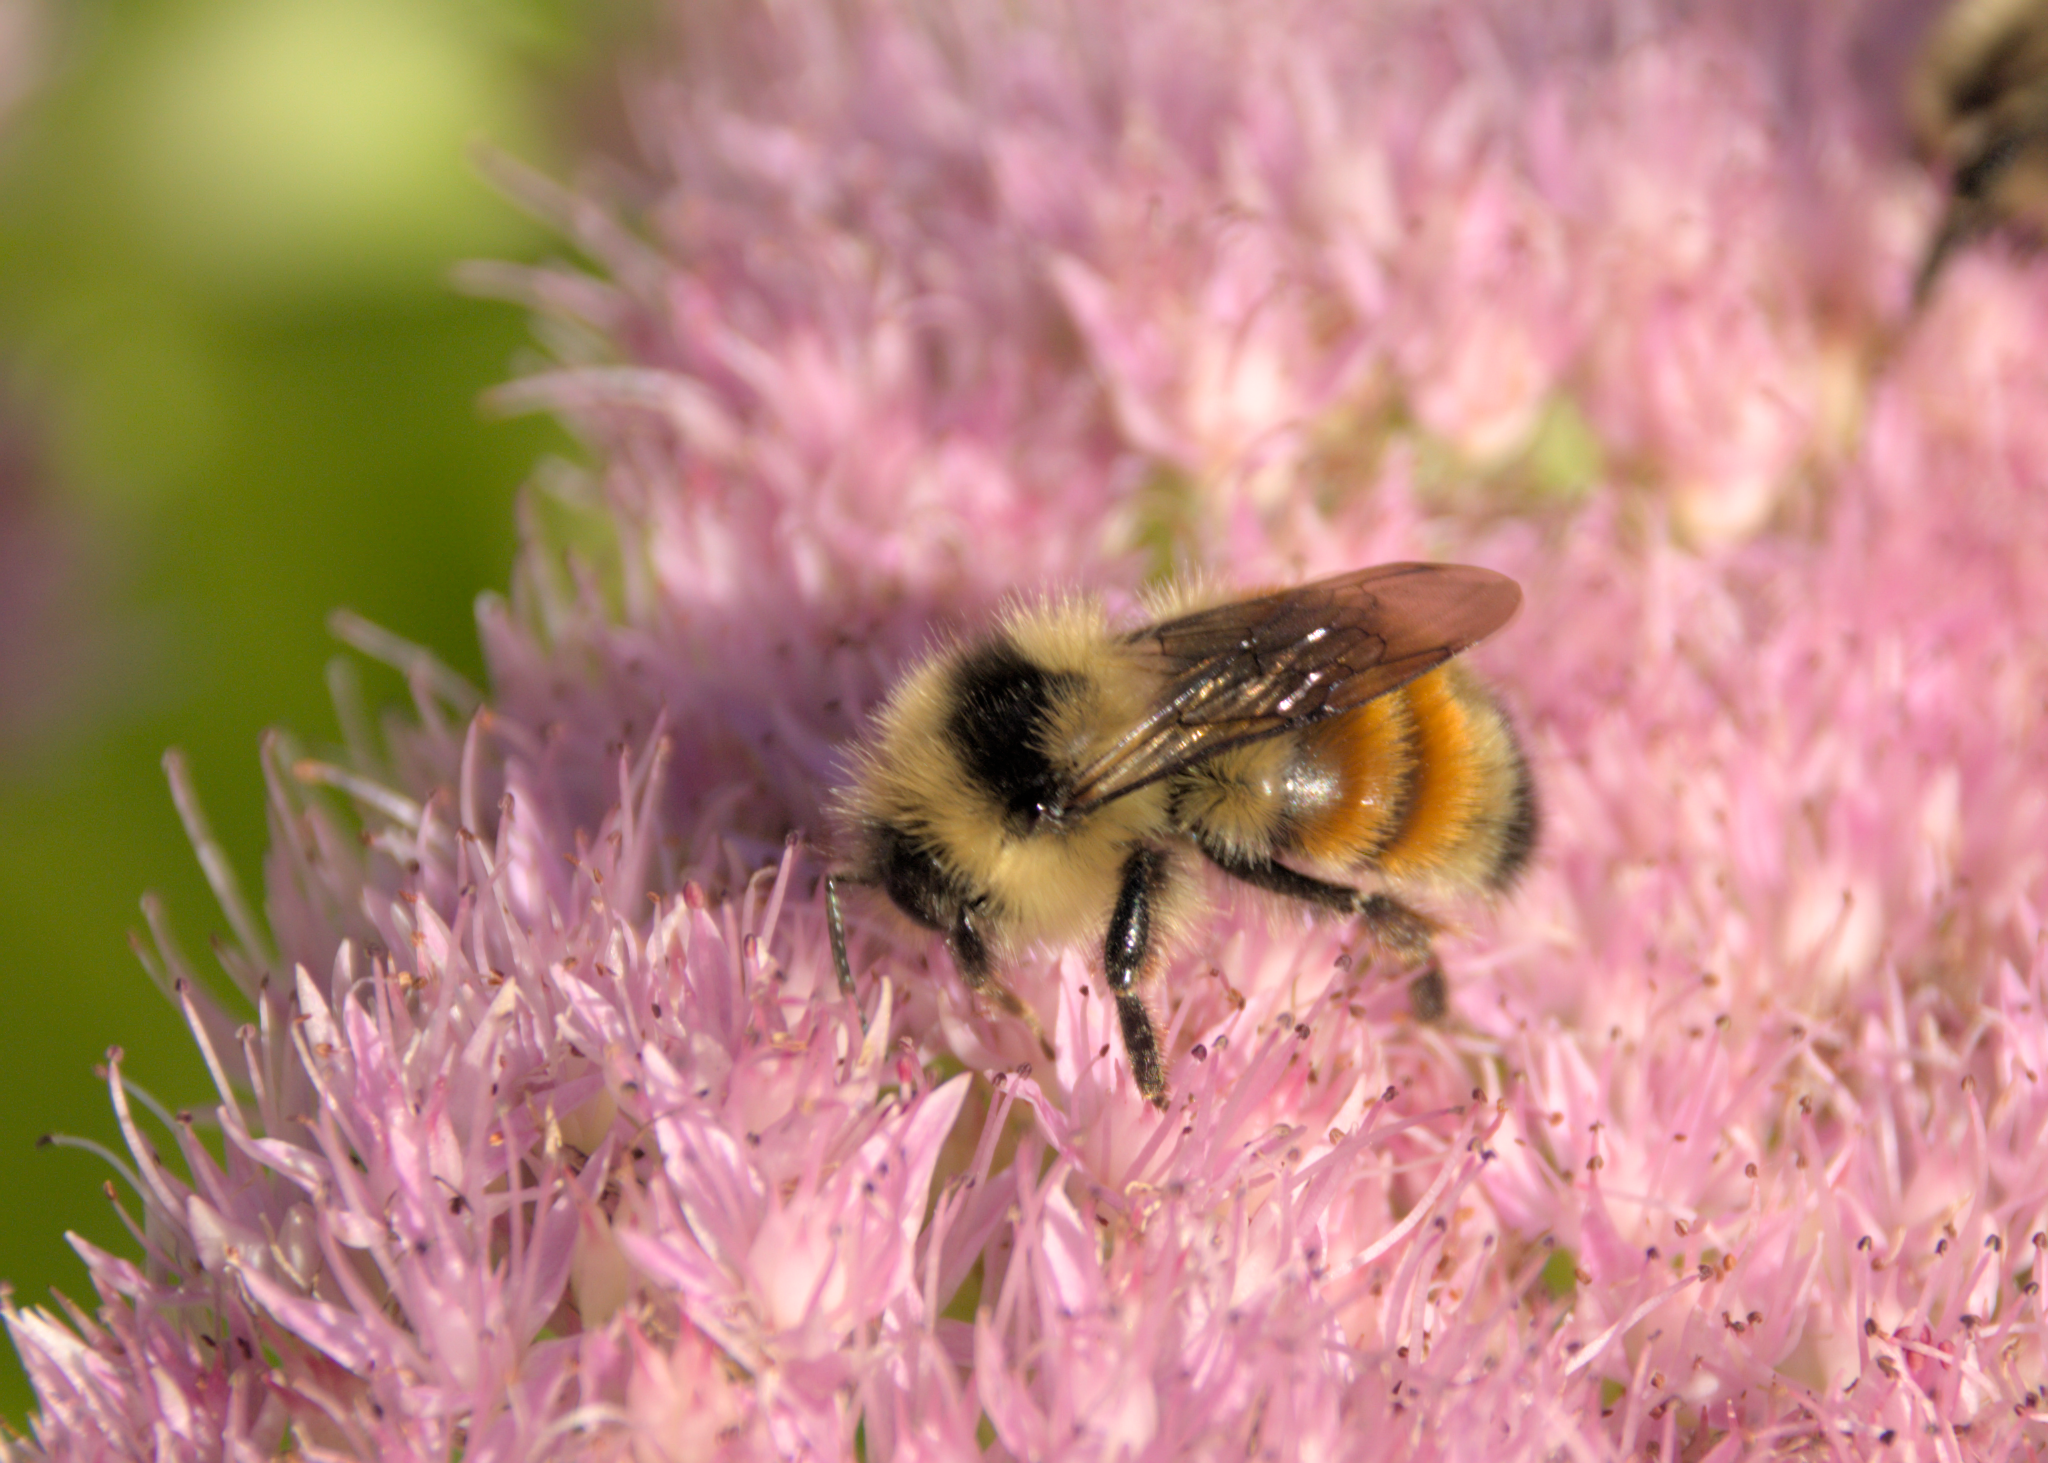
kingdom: Animalia
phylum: Arthropoda
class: Insecta
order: Hymenoptera
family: Apidae
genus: Bombus
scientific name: Bombus ternarius
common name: Tri-colored bumble bee
